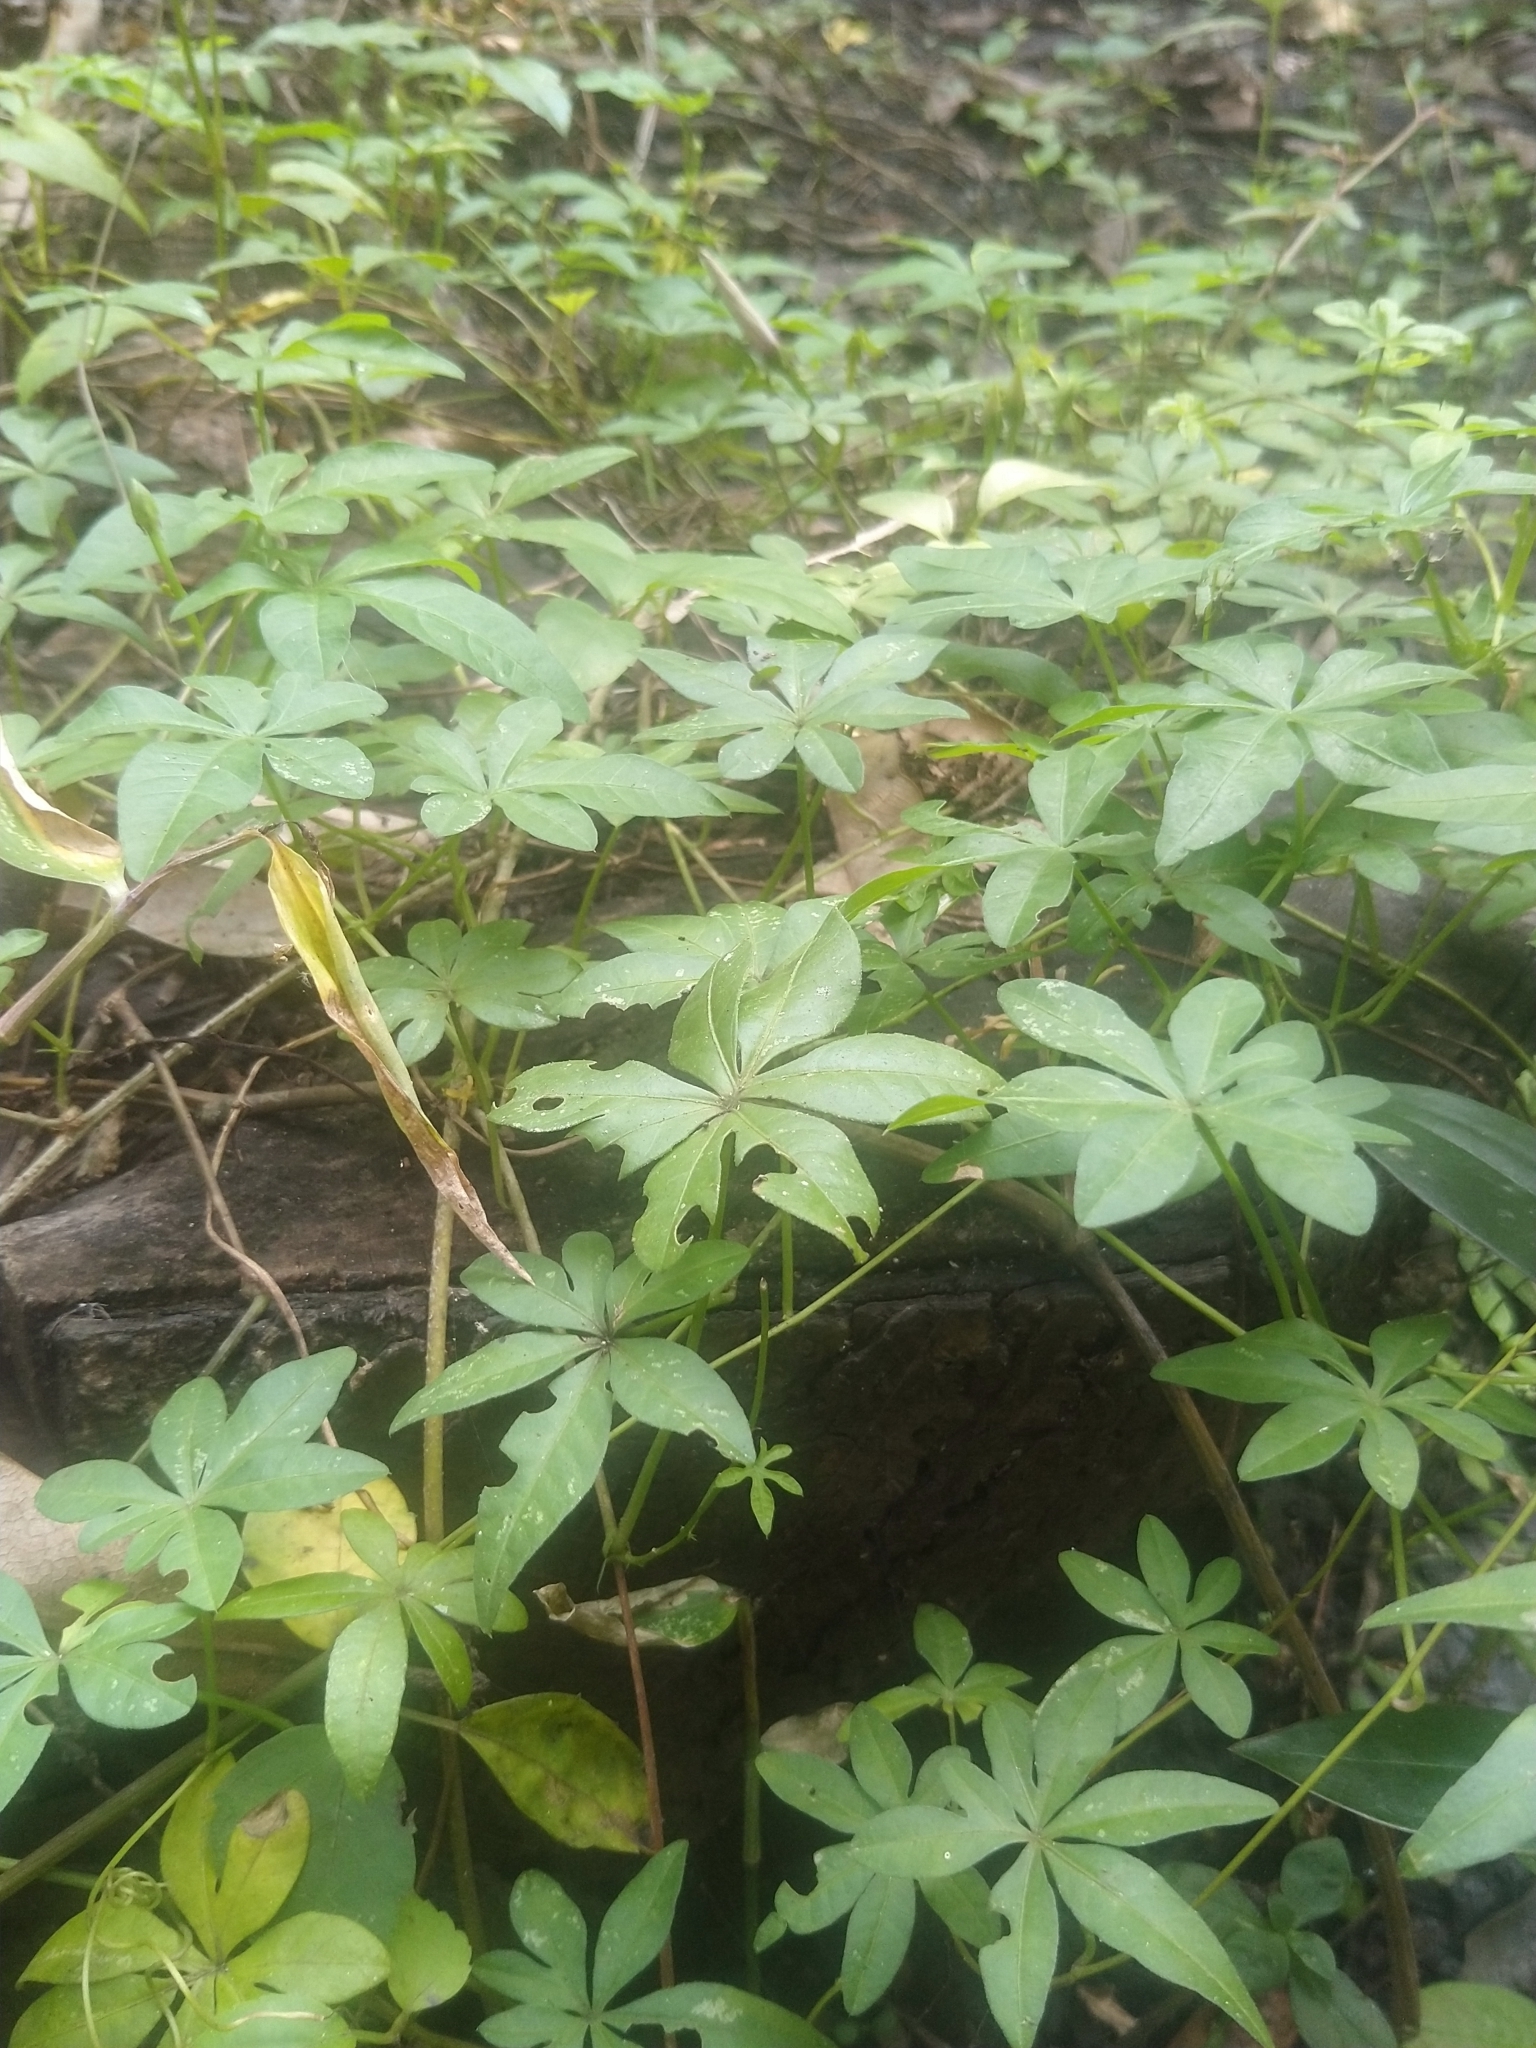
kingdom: Plantae
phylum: Tracheophyta
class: Magnoliopsida
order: Solanales
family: Convolvulaceae
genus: Ipomoea
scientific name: Ipomoea cairica
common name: Mile a minute vine
